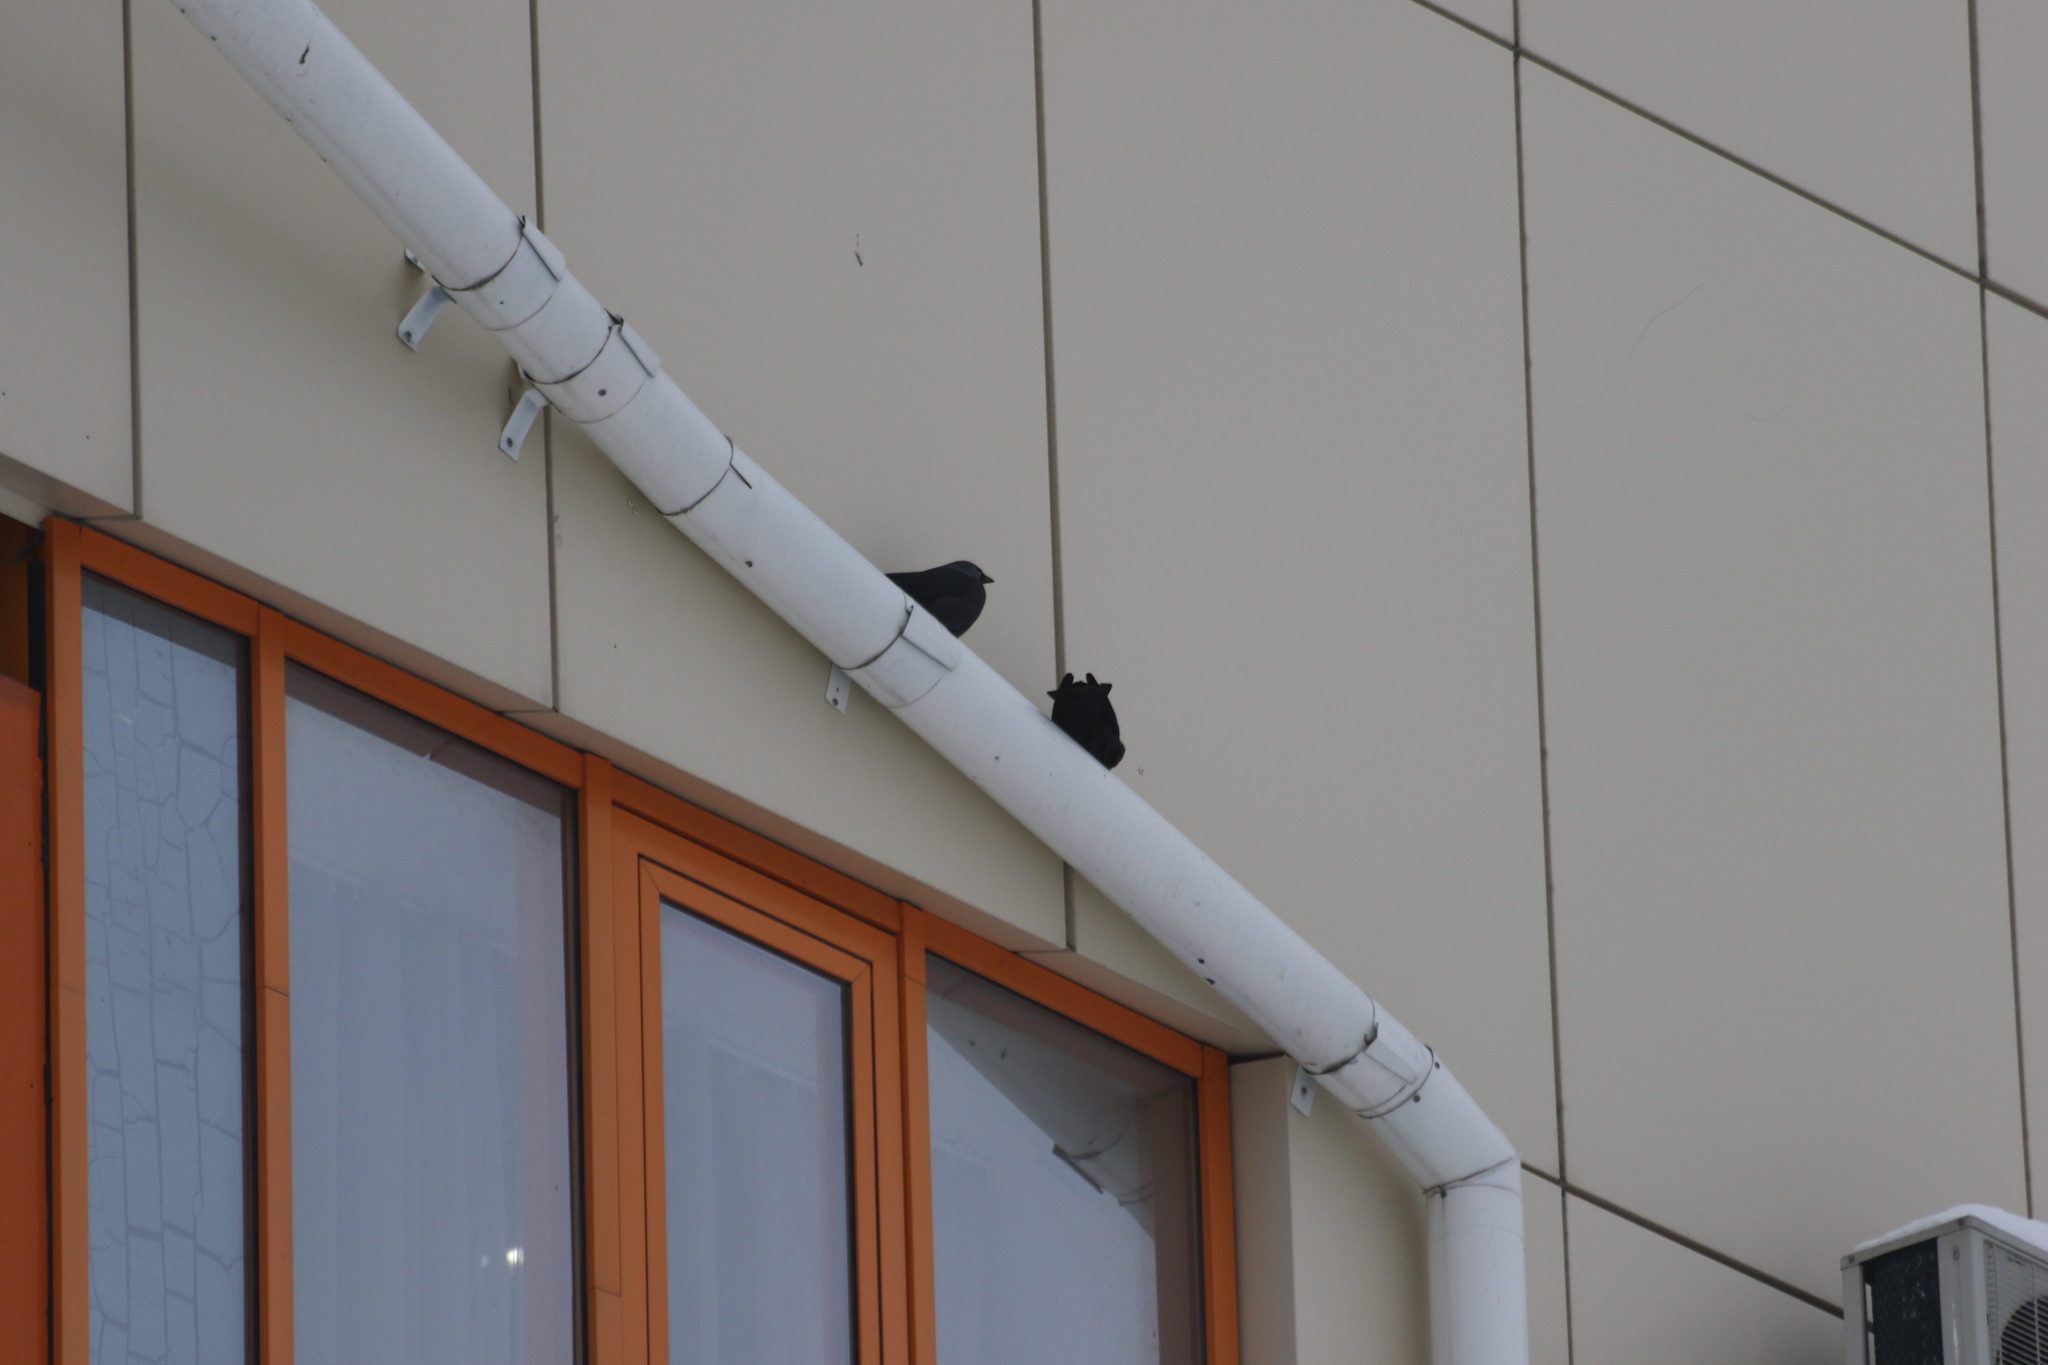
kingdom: Animalia
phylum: Chordata
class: Aves
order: Passeriformes
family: Corvidae
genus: Coloeus
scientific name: Coloeus monedula
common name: Western jackdaw
